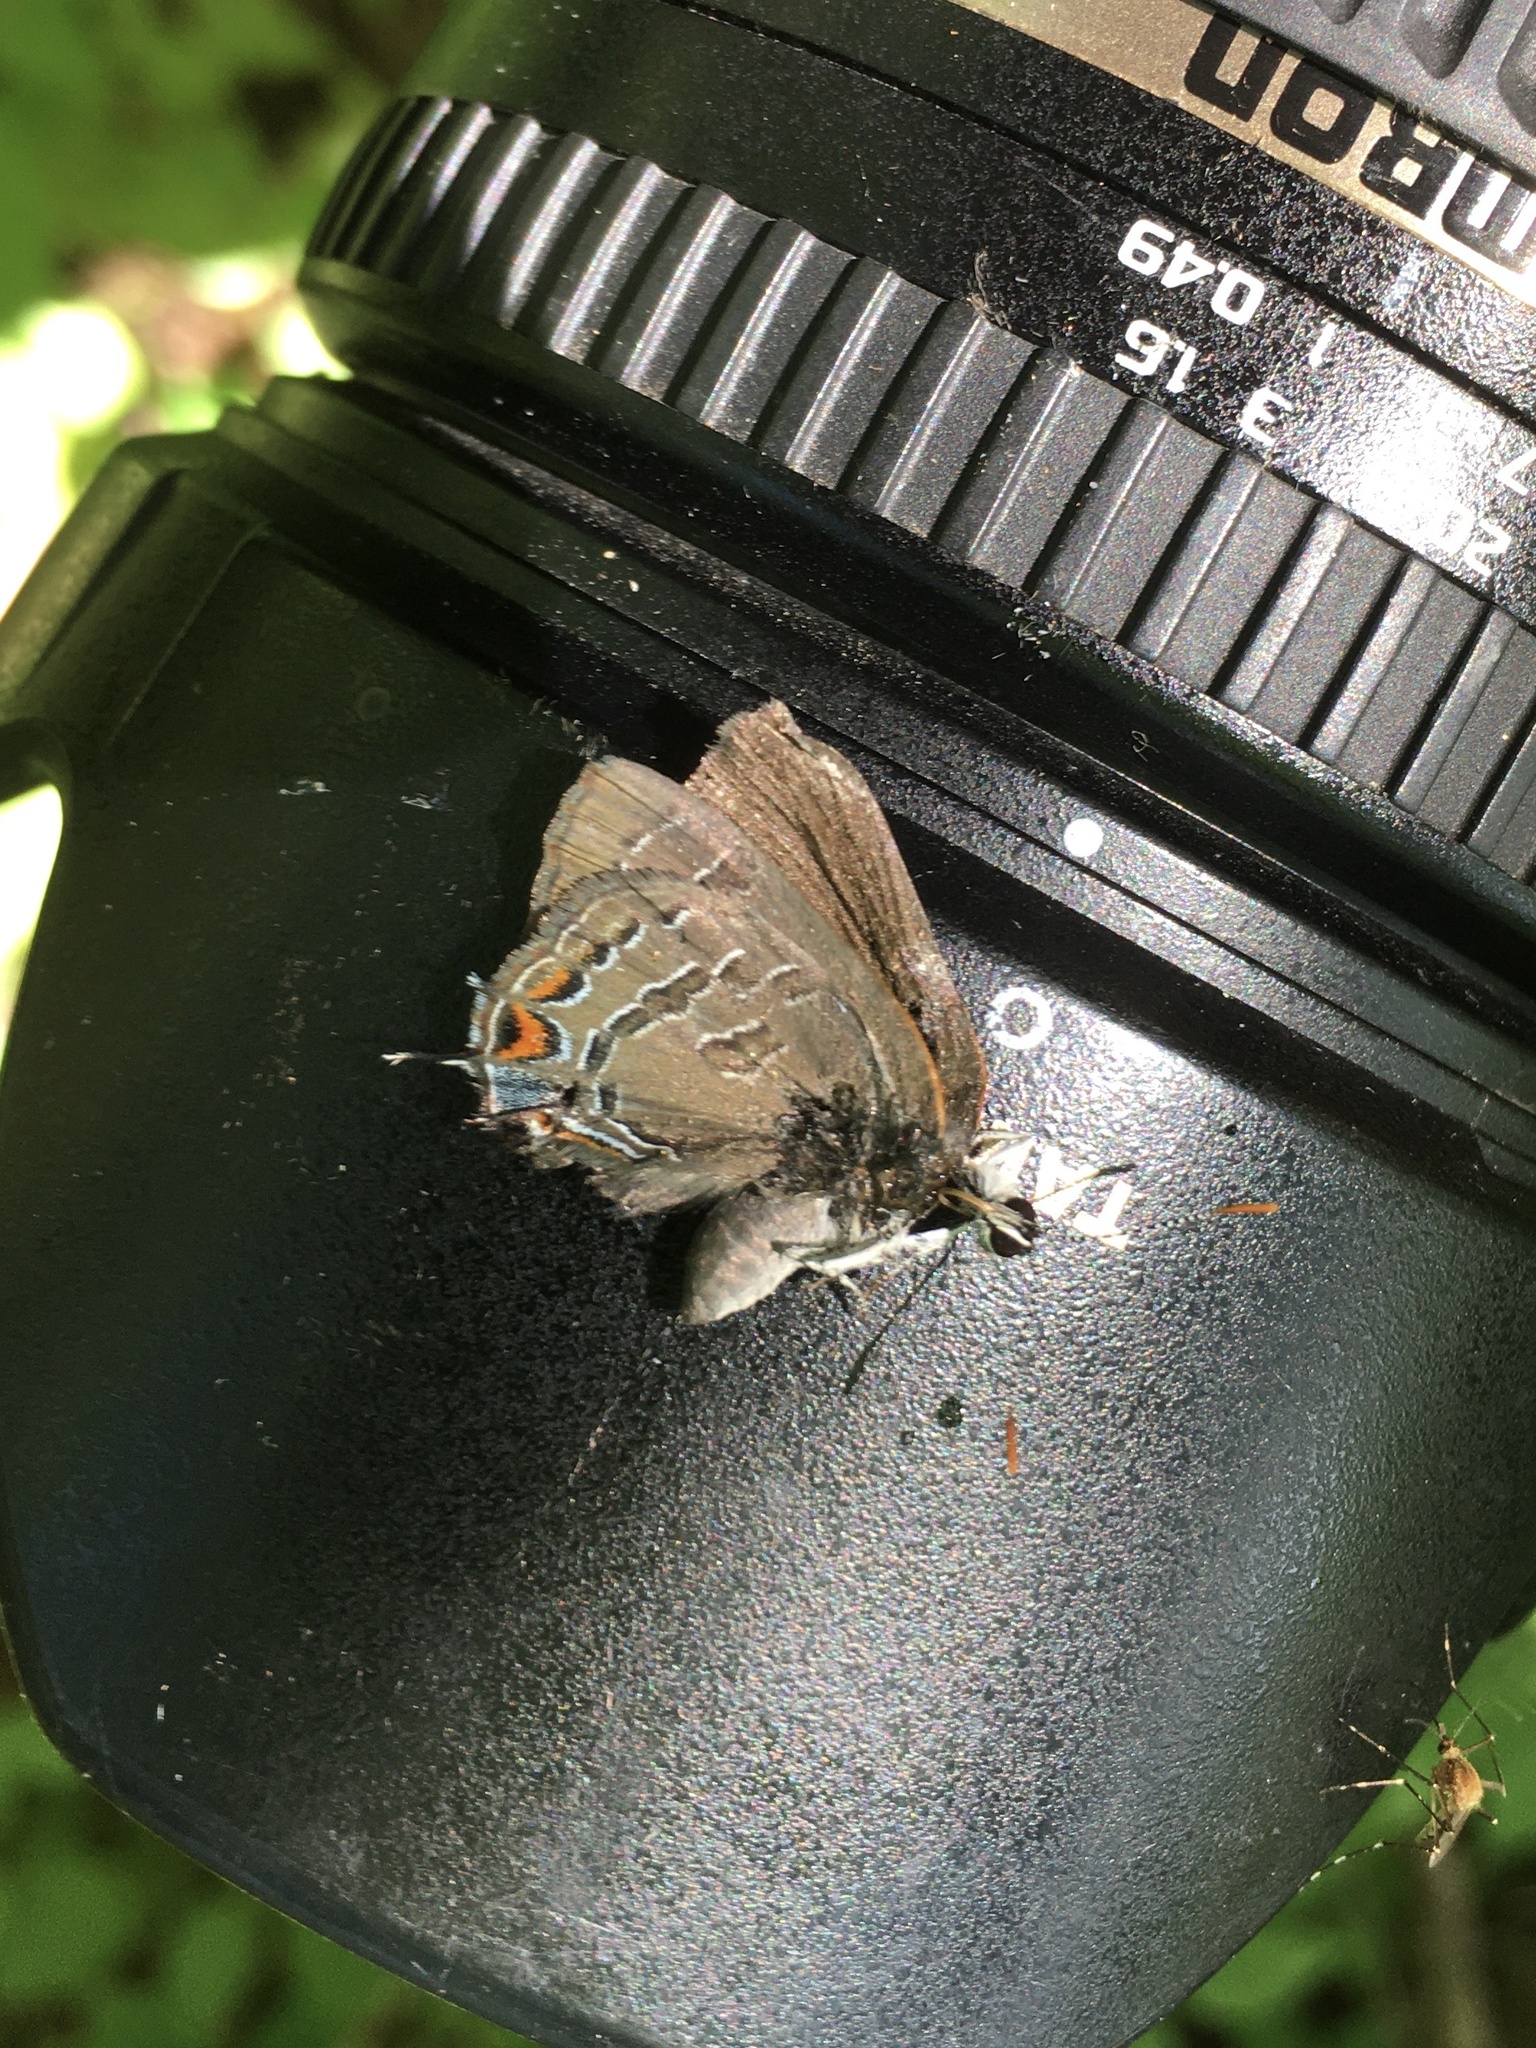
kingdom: Animalia
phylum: Arthropoda
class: Insecta
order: Lepidoptera
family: Lycaenidae
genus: Satyrium
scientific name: Satyrium calanus
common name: Banded hairstreak
